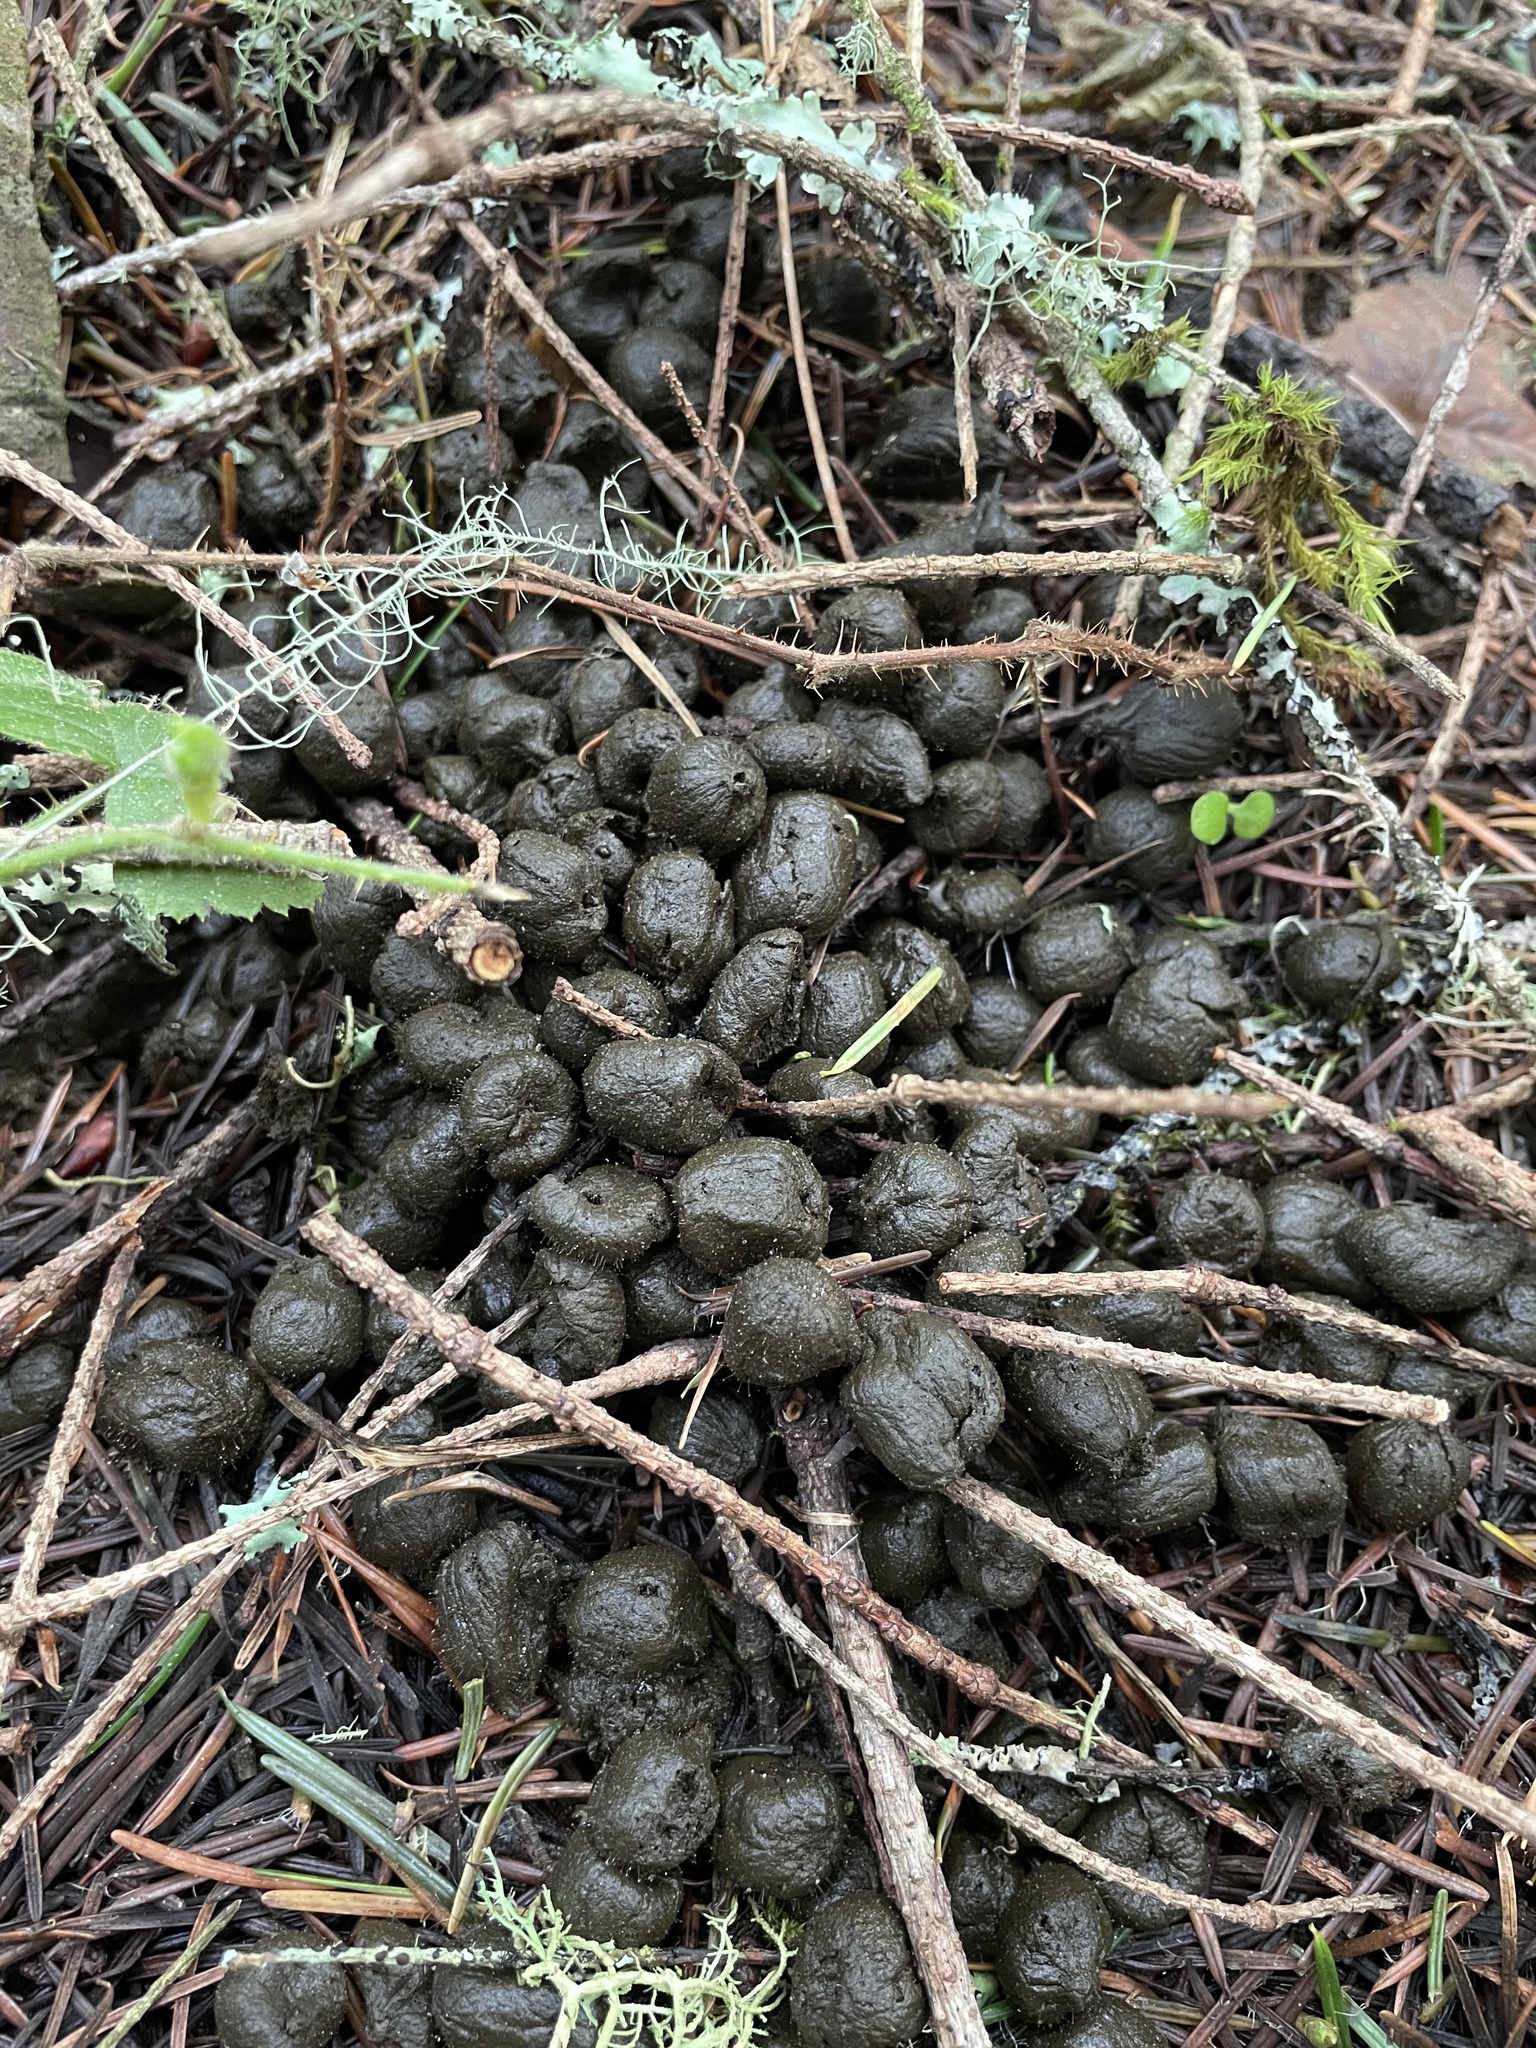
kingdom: Animalia
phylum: Chordata
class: Mammalia
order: Artiodactyla
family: Cervidae
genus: Odocoileus
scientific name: Odocoileus hemionus
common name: Mule deer
